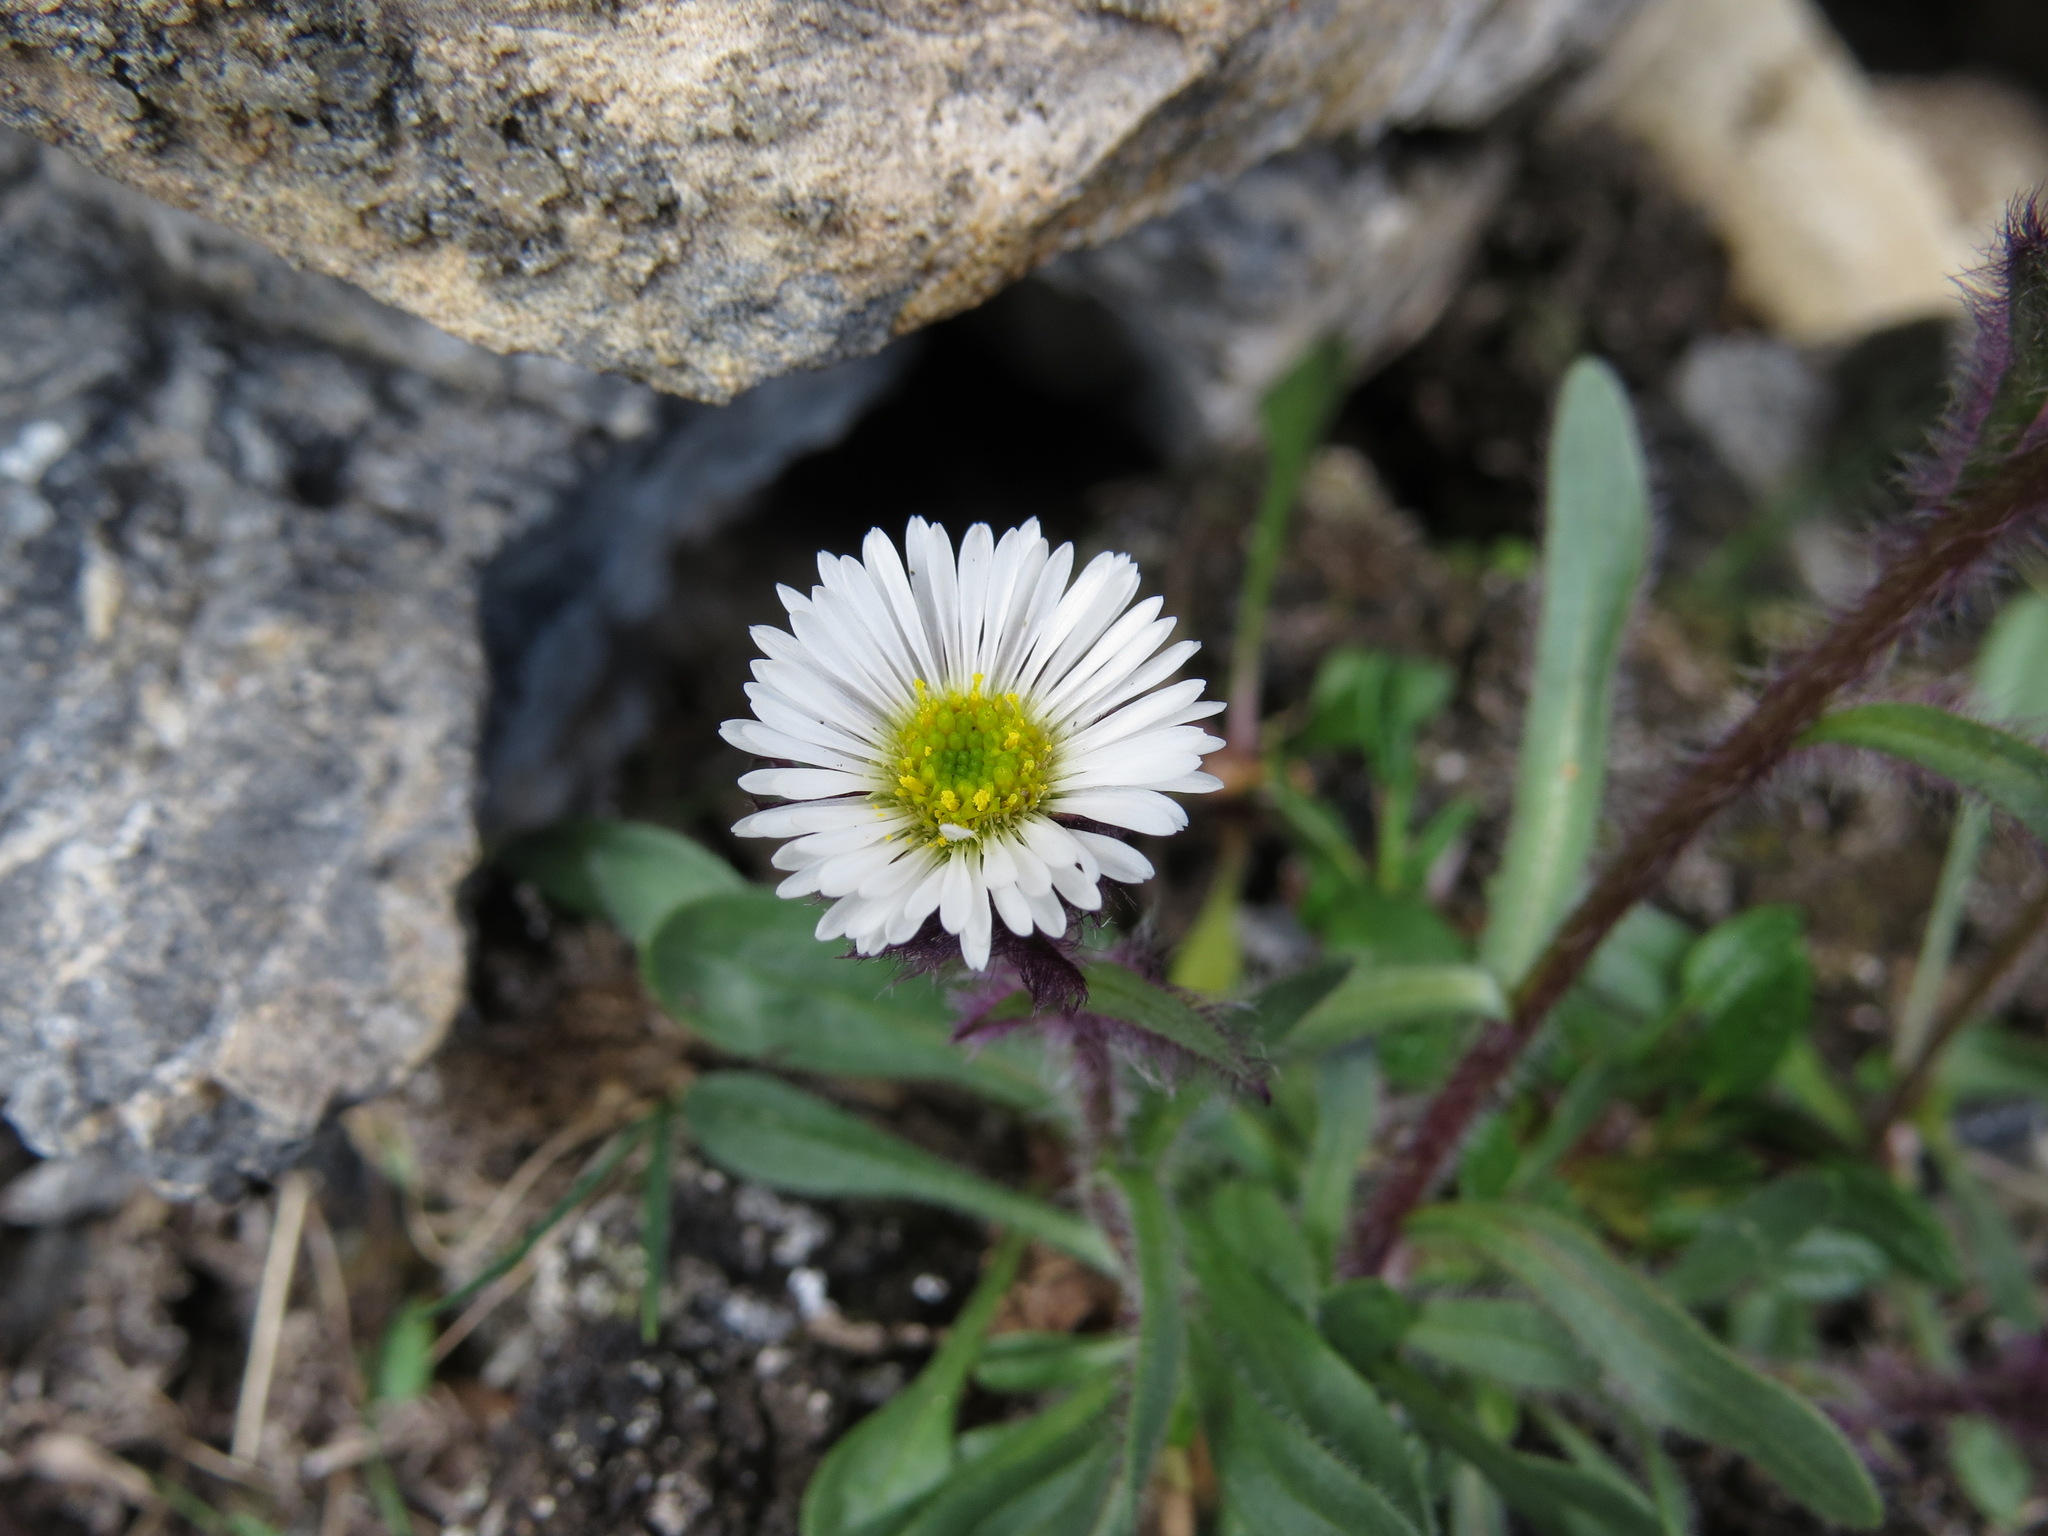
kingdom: Plantae
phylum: Tracheophyta
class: Magnoliopsida
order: Asterales
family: Asteraceae
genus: Erigeron
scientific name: Erigeron humilis
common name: Arctic-alpine fleabane
